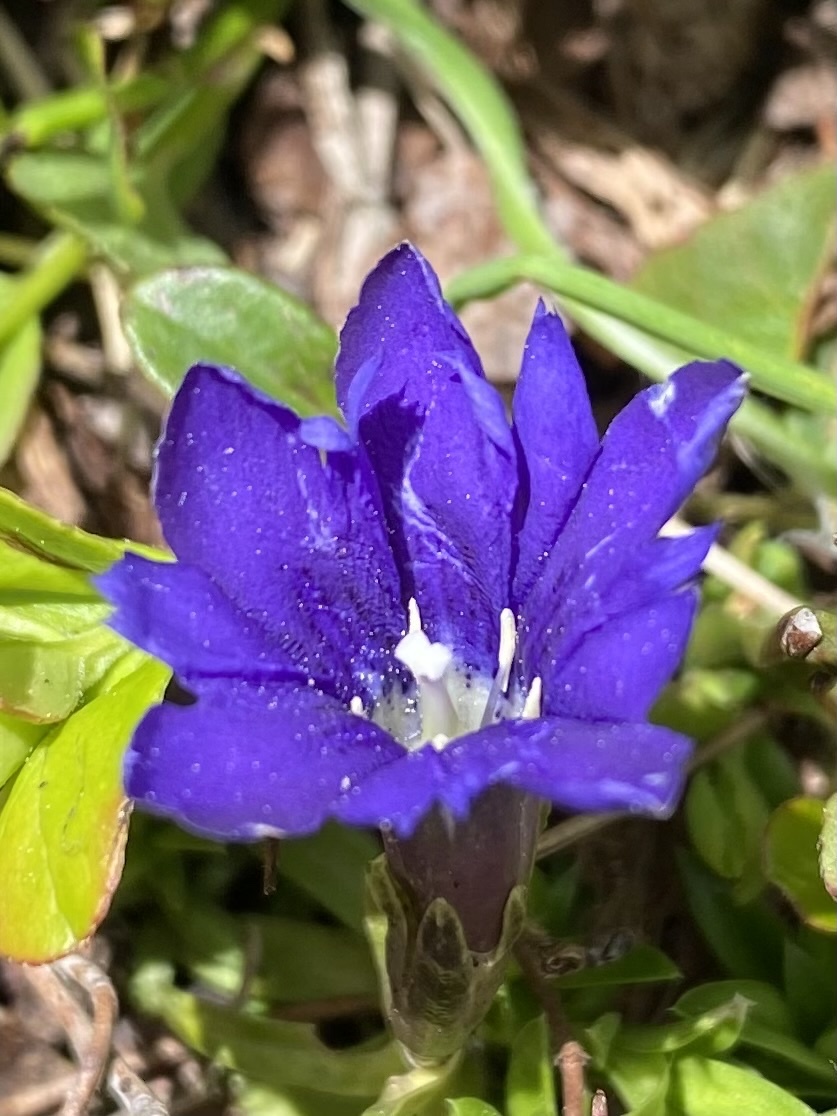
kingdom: Plantae
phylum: Tracheophyta
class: Magnoliopsida
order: Gentianales
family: Gentianaceae
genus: Gentiana
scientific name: Gentiana dshimilensis
